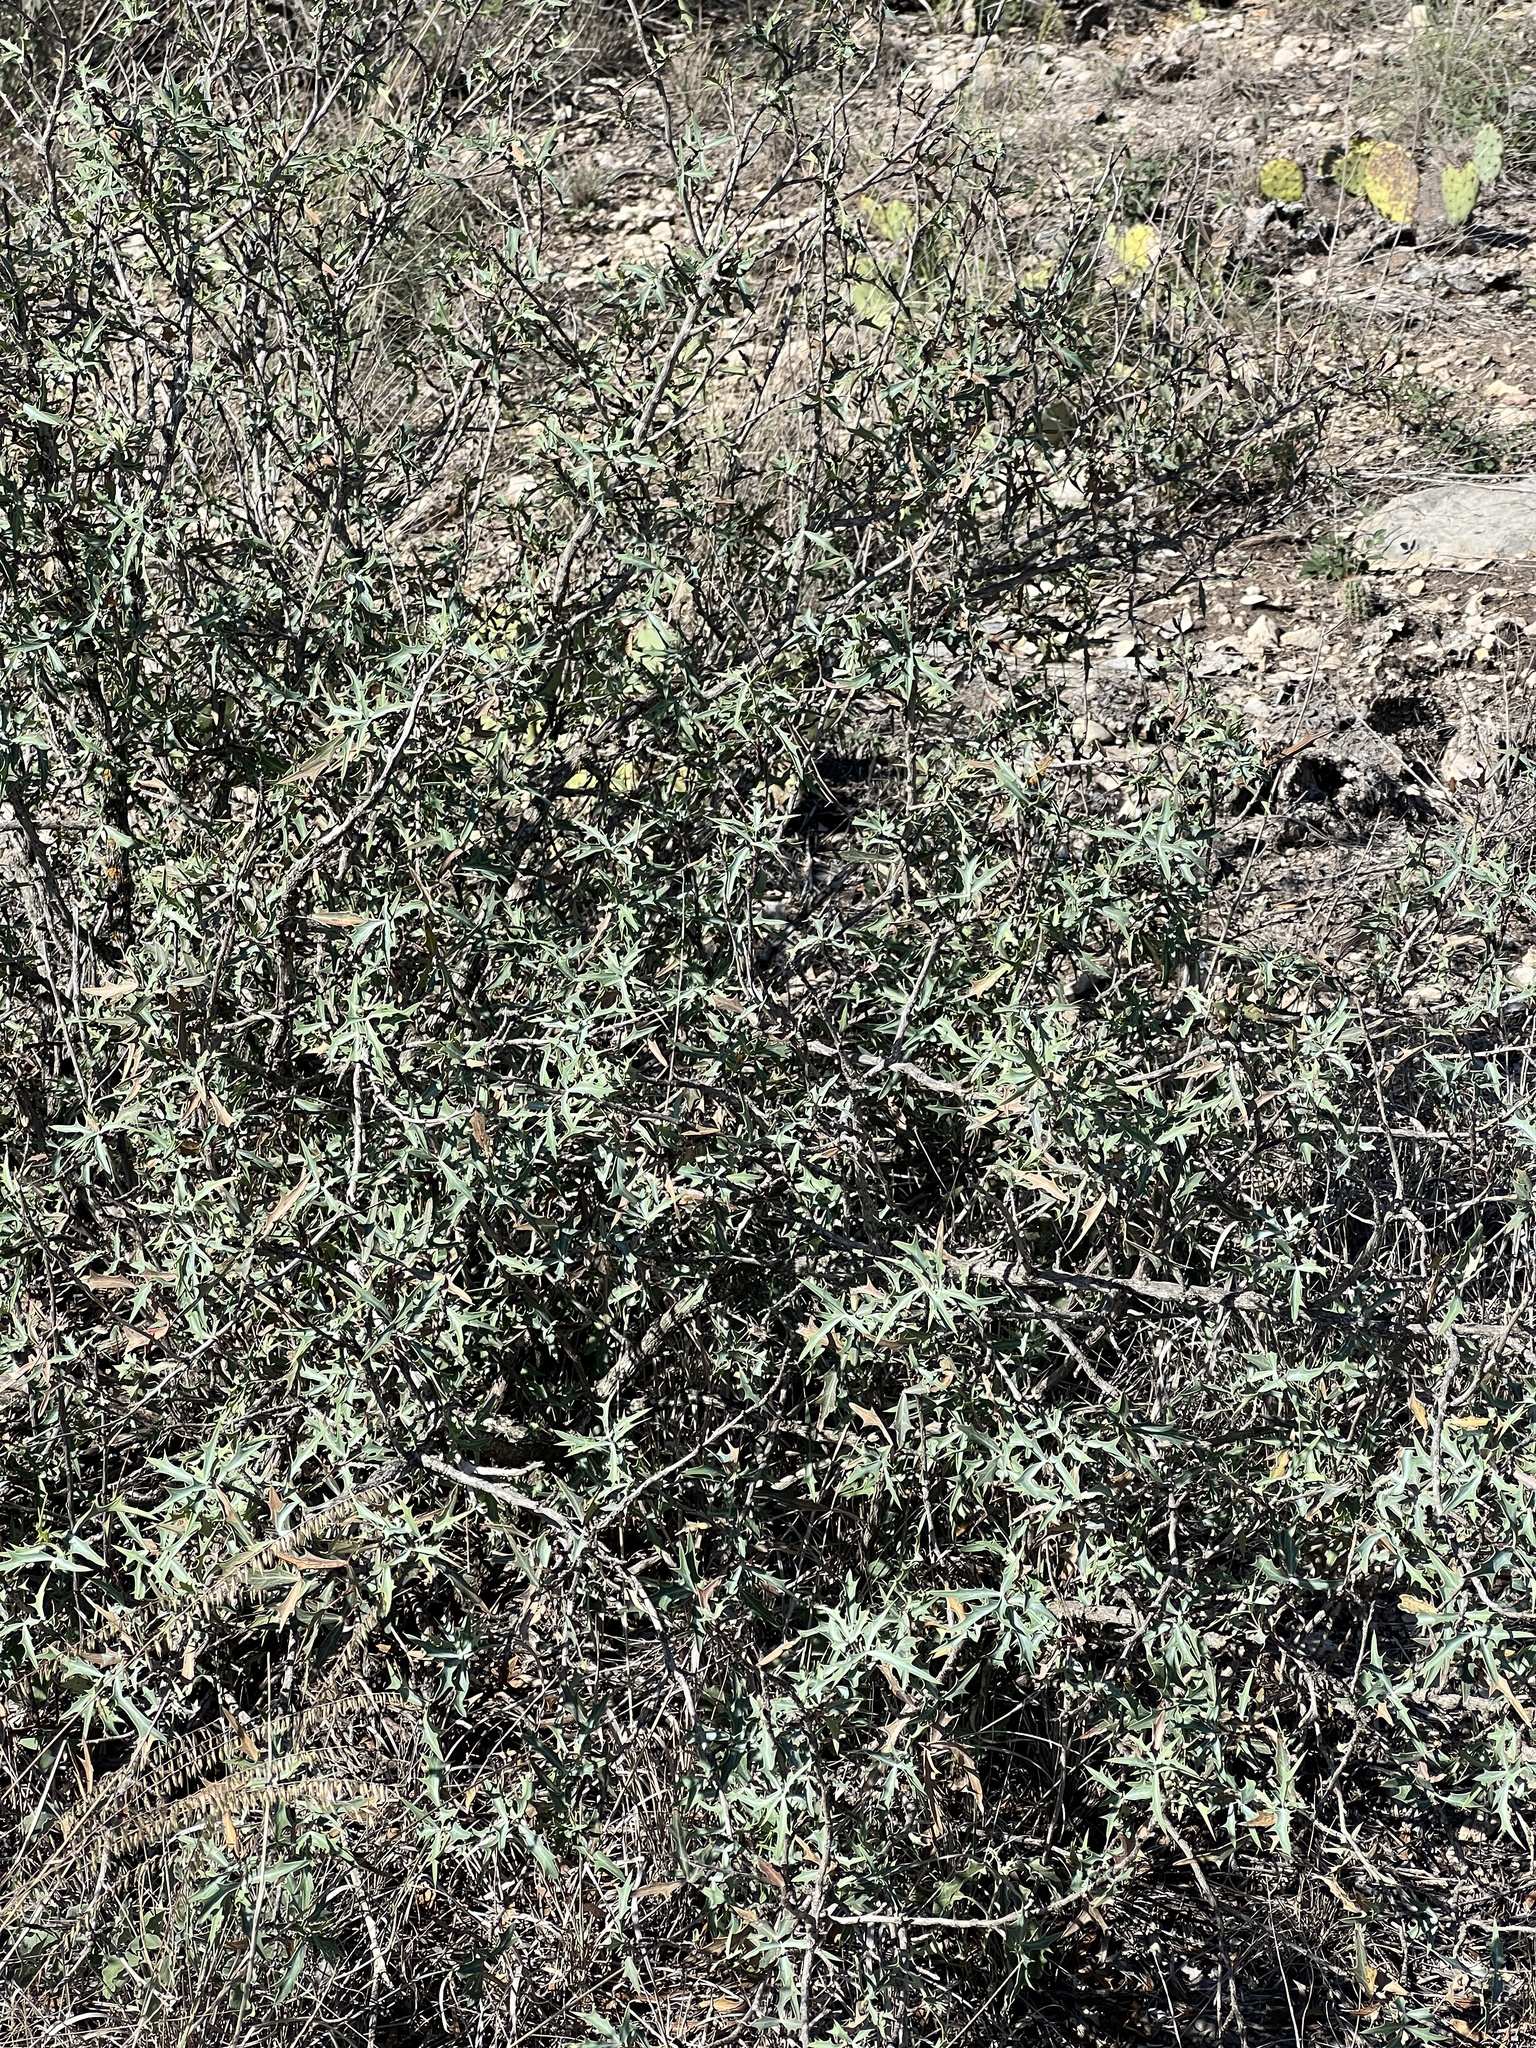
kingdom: Plantae
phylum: Tracheophyta
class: Magnoliopsida
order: Ranunculales
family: Berberidaceae
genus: Alloberberis
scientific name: Alloberberis trifoliolata
